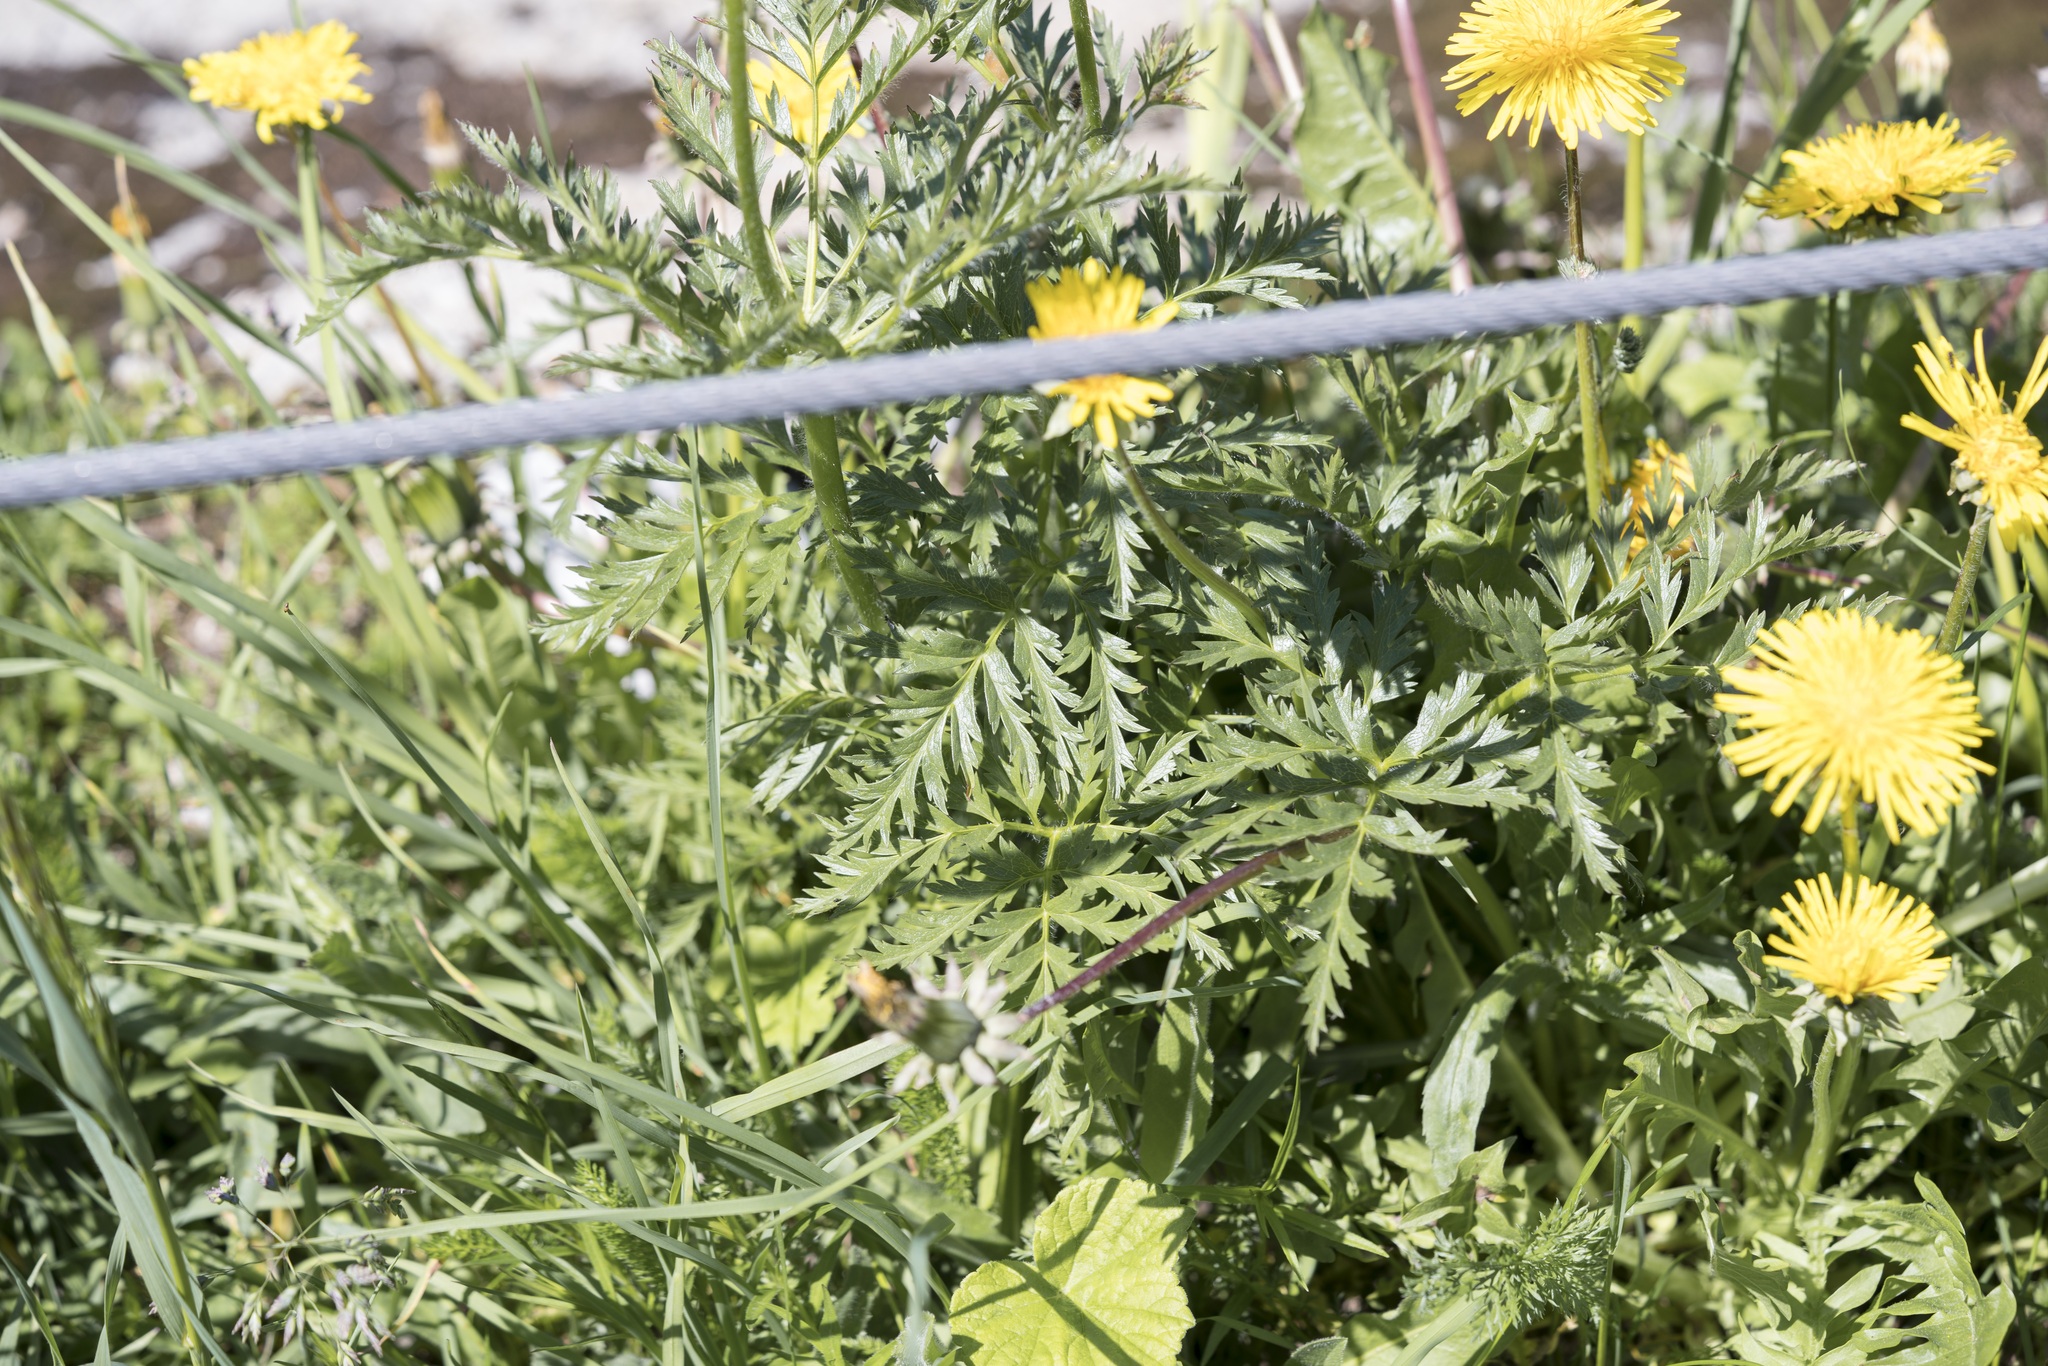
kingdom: Plantae
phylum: Tracheophyta
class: Magnoliopsida
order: Ranunculales
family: Ranunculaceae
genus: Pulsatilla
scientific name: Pulsatilla alpina
